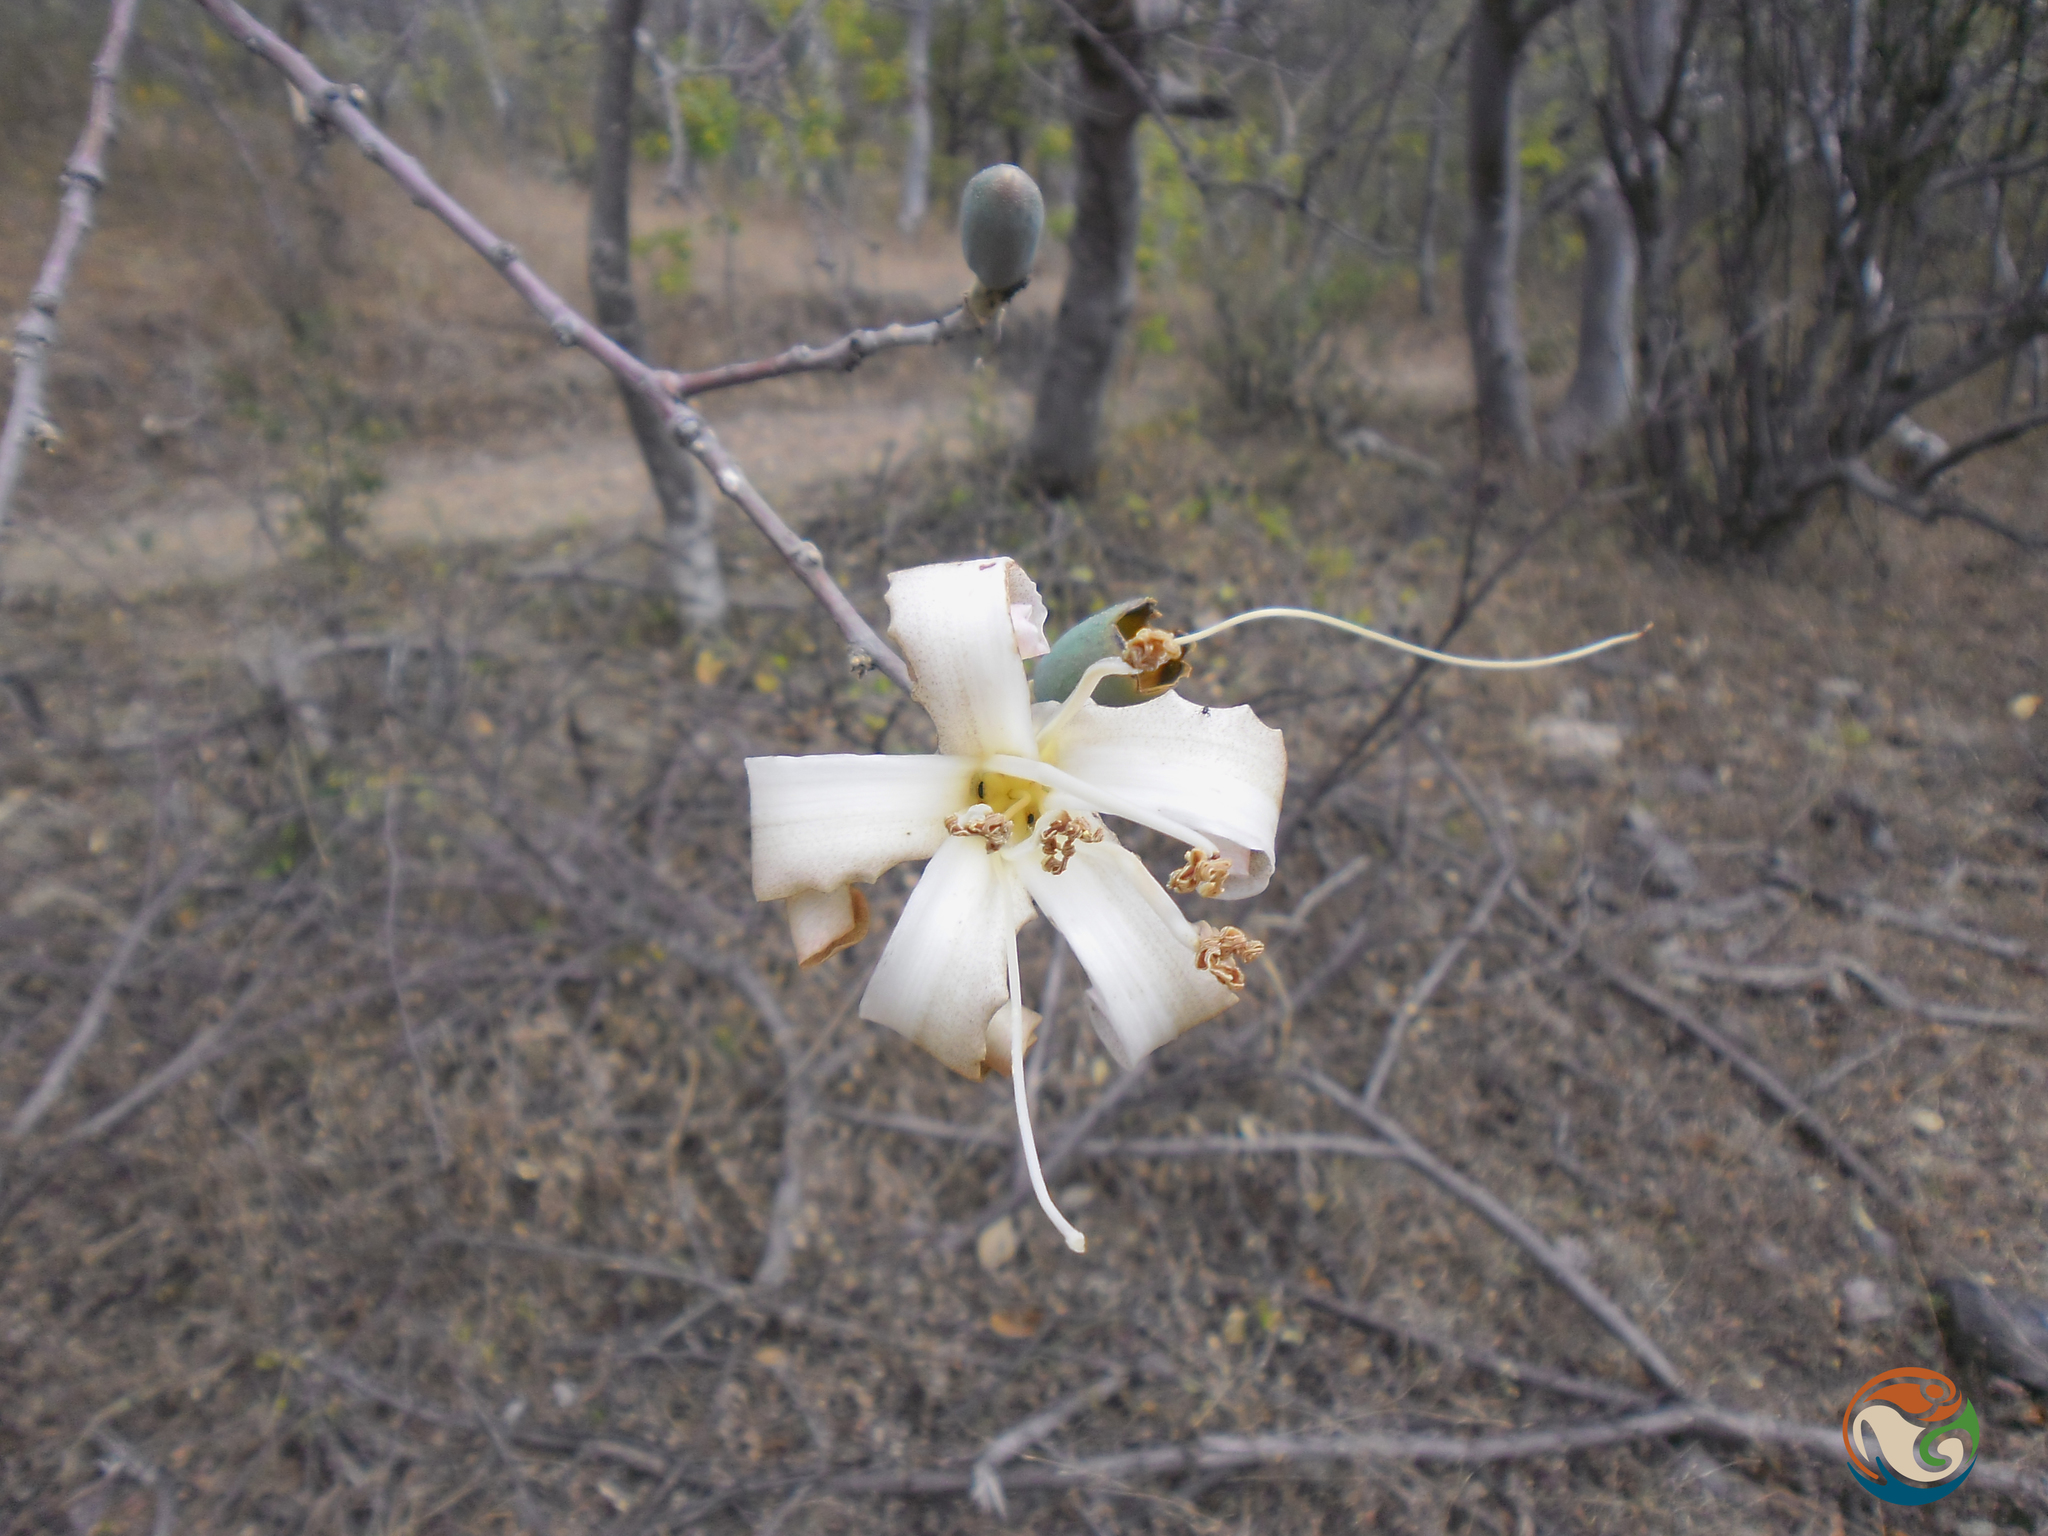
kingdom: Plantae
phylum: Tracheophyta
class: Magnoliopsida
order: Malvales
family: Malvaceae
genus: Ceiba
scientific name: Ceiba aesculifolia
